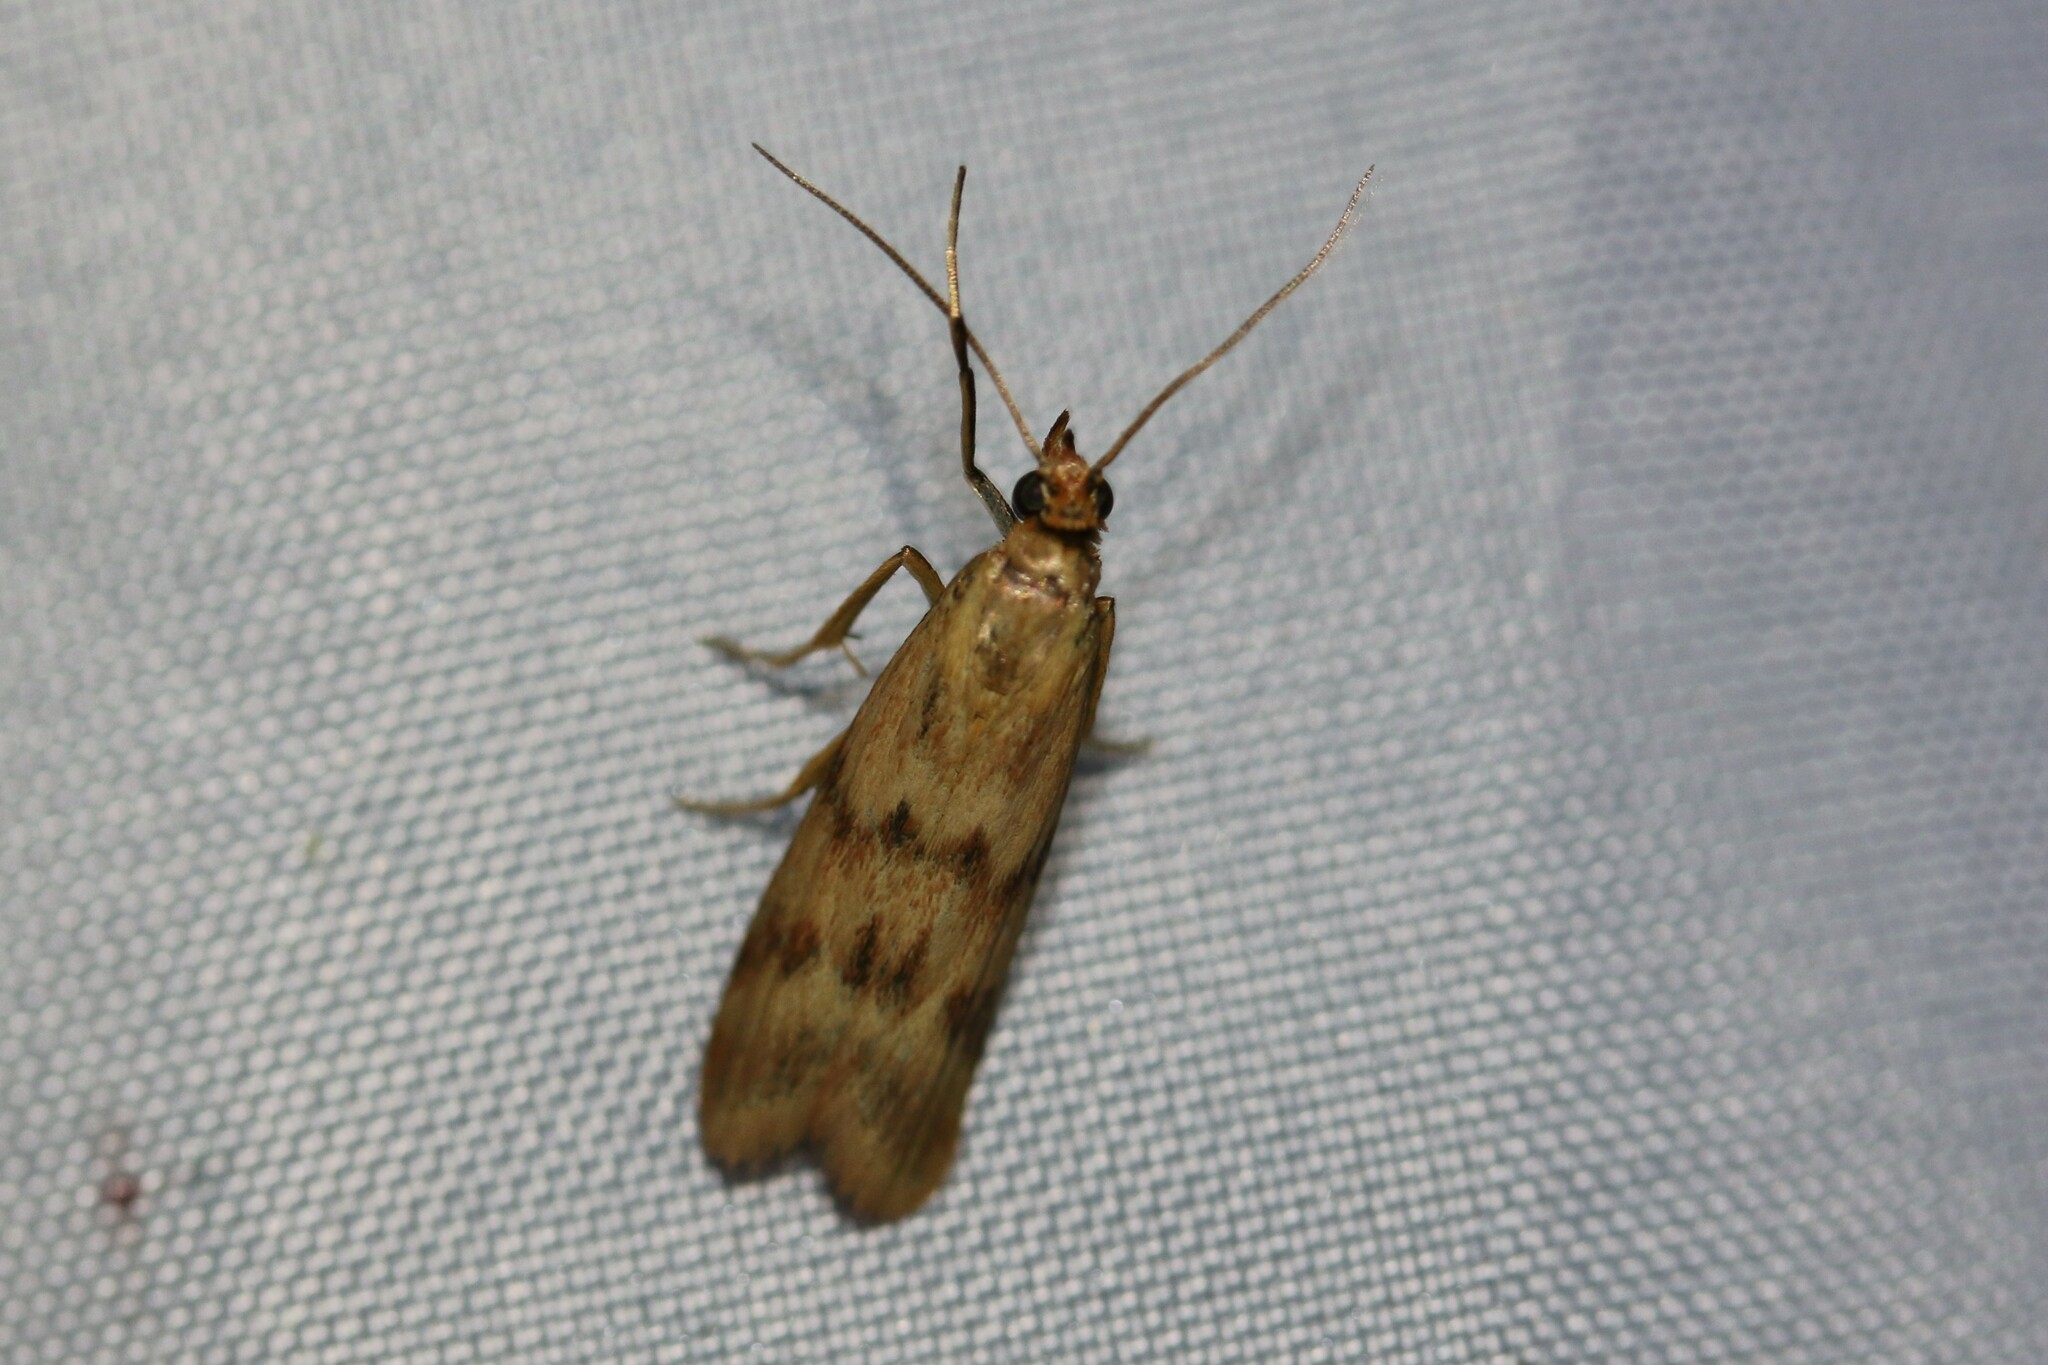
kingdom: Animalia
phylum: Arthropoda
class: Insecta
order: Lepidoptera
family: Pyralidae
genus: Homoeosoma
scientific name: Homoeosoma sinuella
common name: Twin-barred knot-horn
